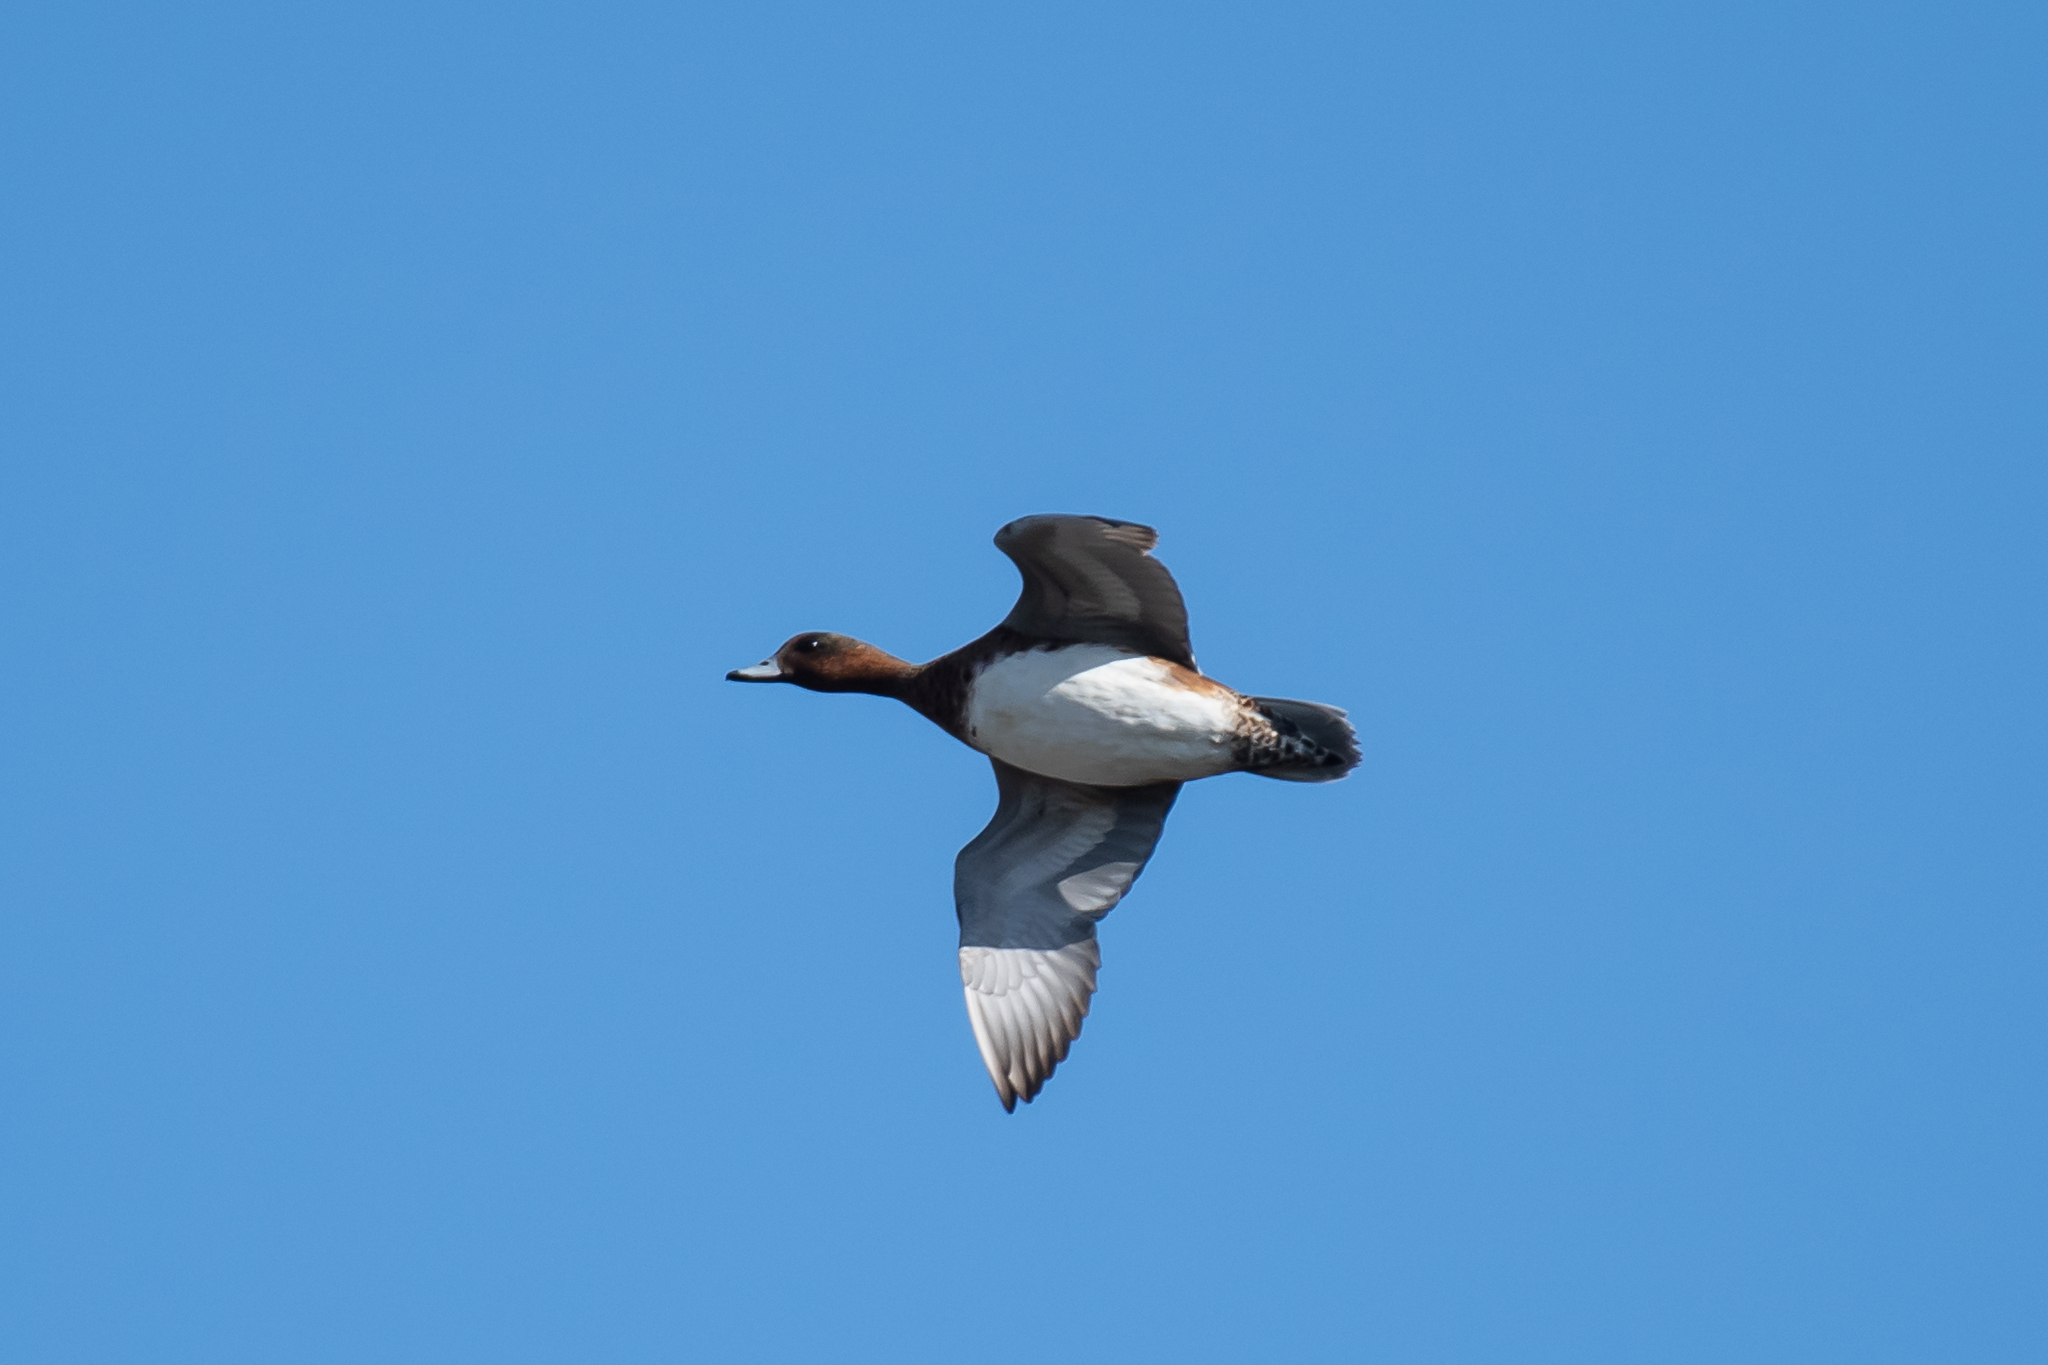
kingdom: Animalia
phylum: Chordata
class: Aves
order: Anseriformes
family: Anatidae
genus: Mareca
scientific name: Mareca penelope
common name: Eurasian wigeon
